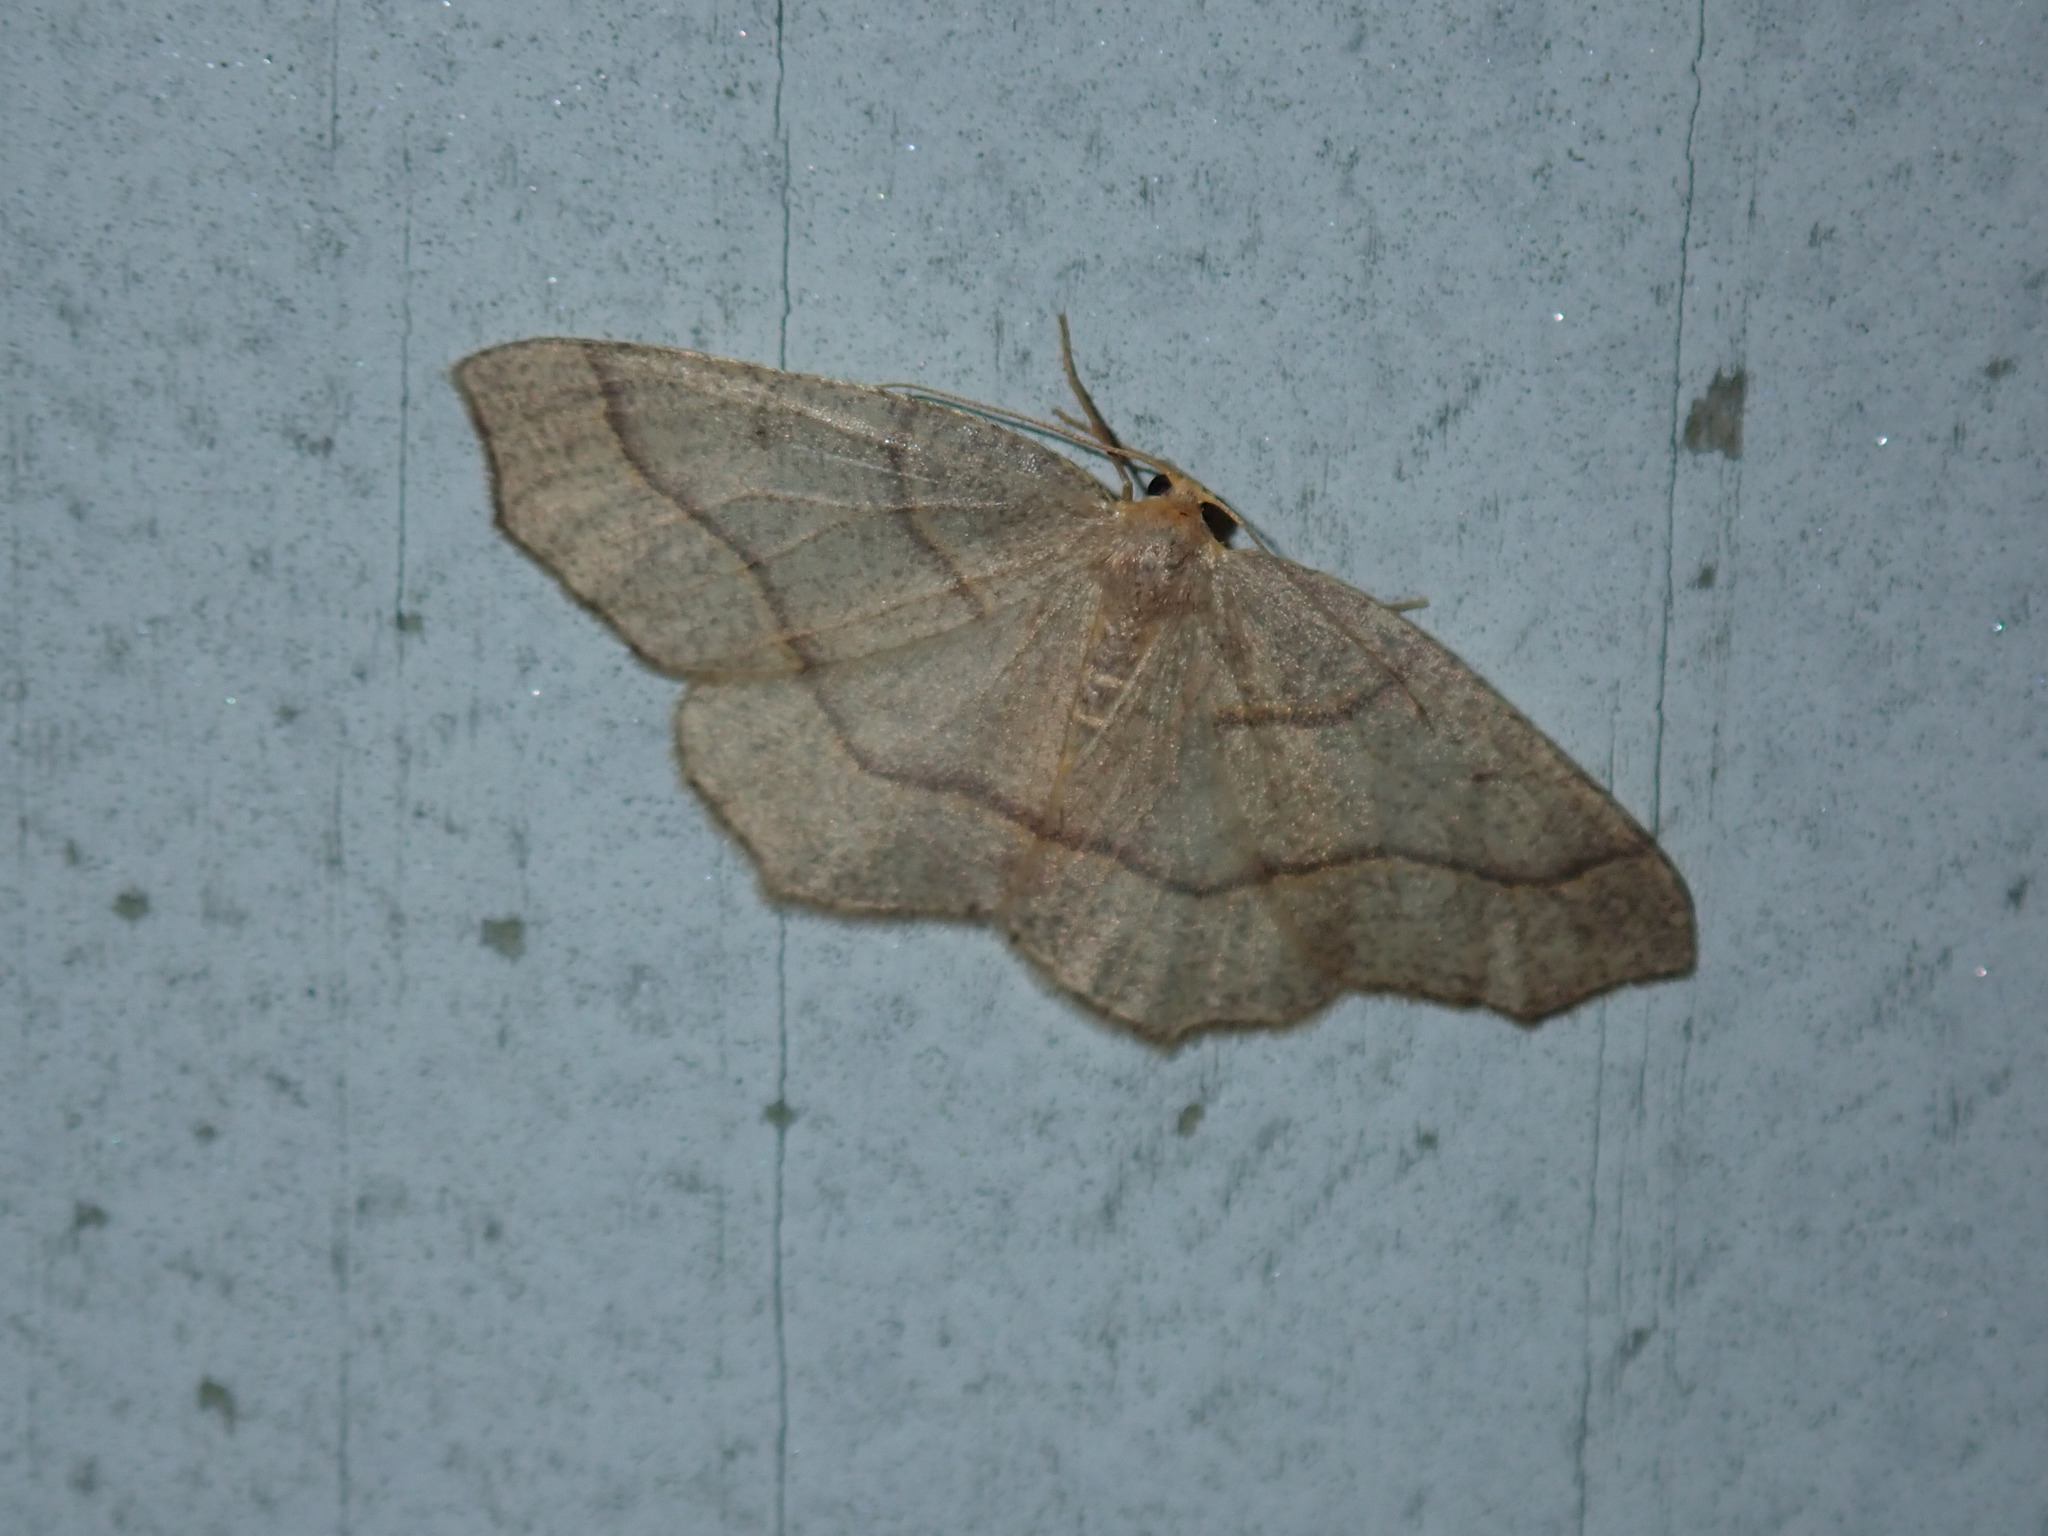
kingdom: Animalia
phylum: Arthropoda
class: Insecta
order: Lepidoptera
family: Geometridae
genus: Lambdina
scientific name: Lambdina fiscellaria
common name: Hemlock looper
